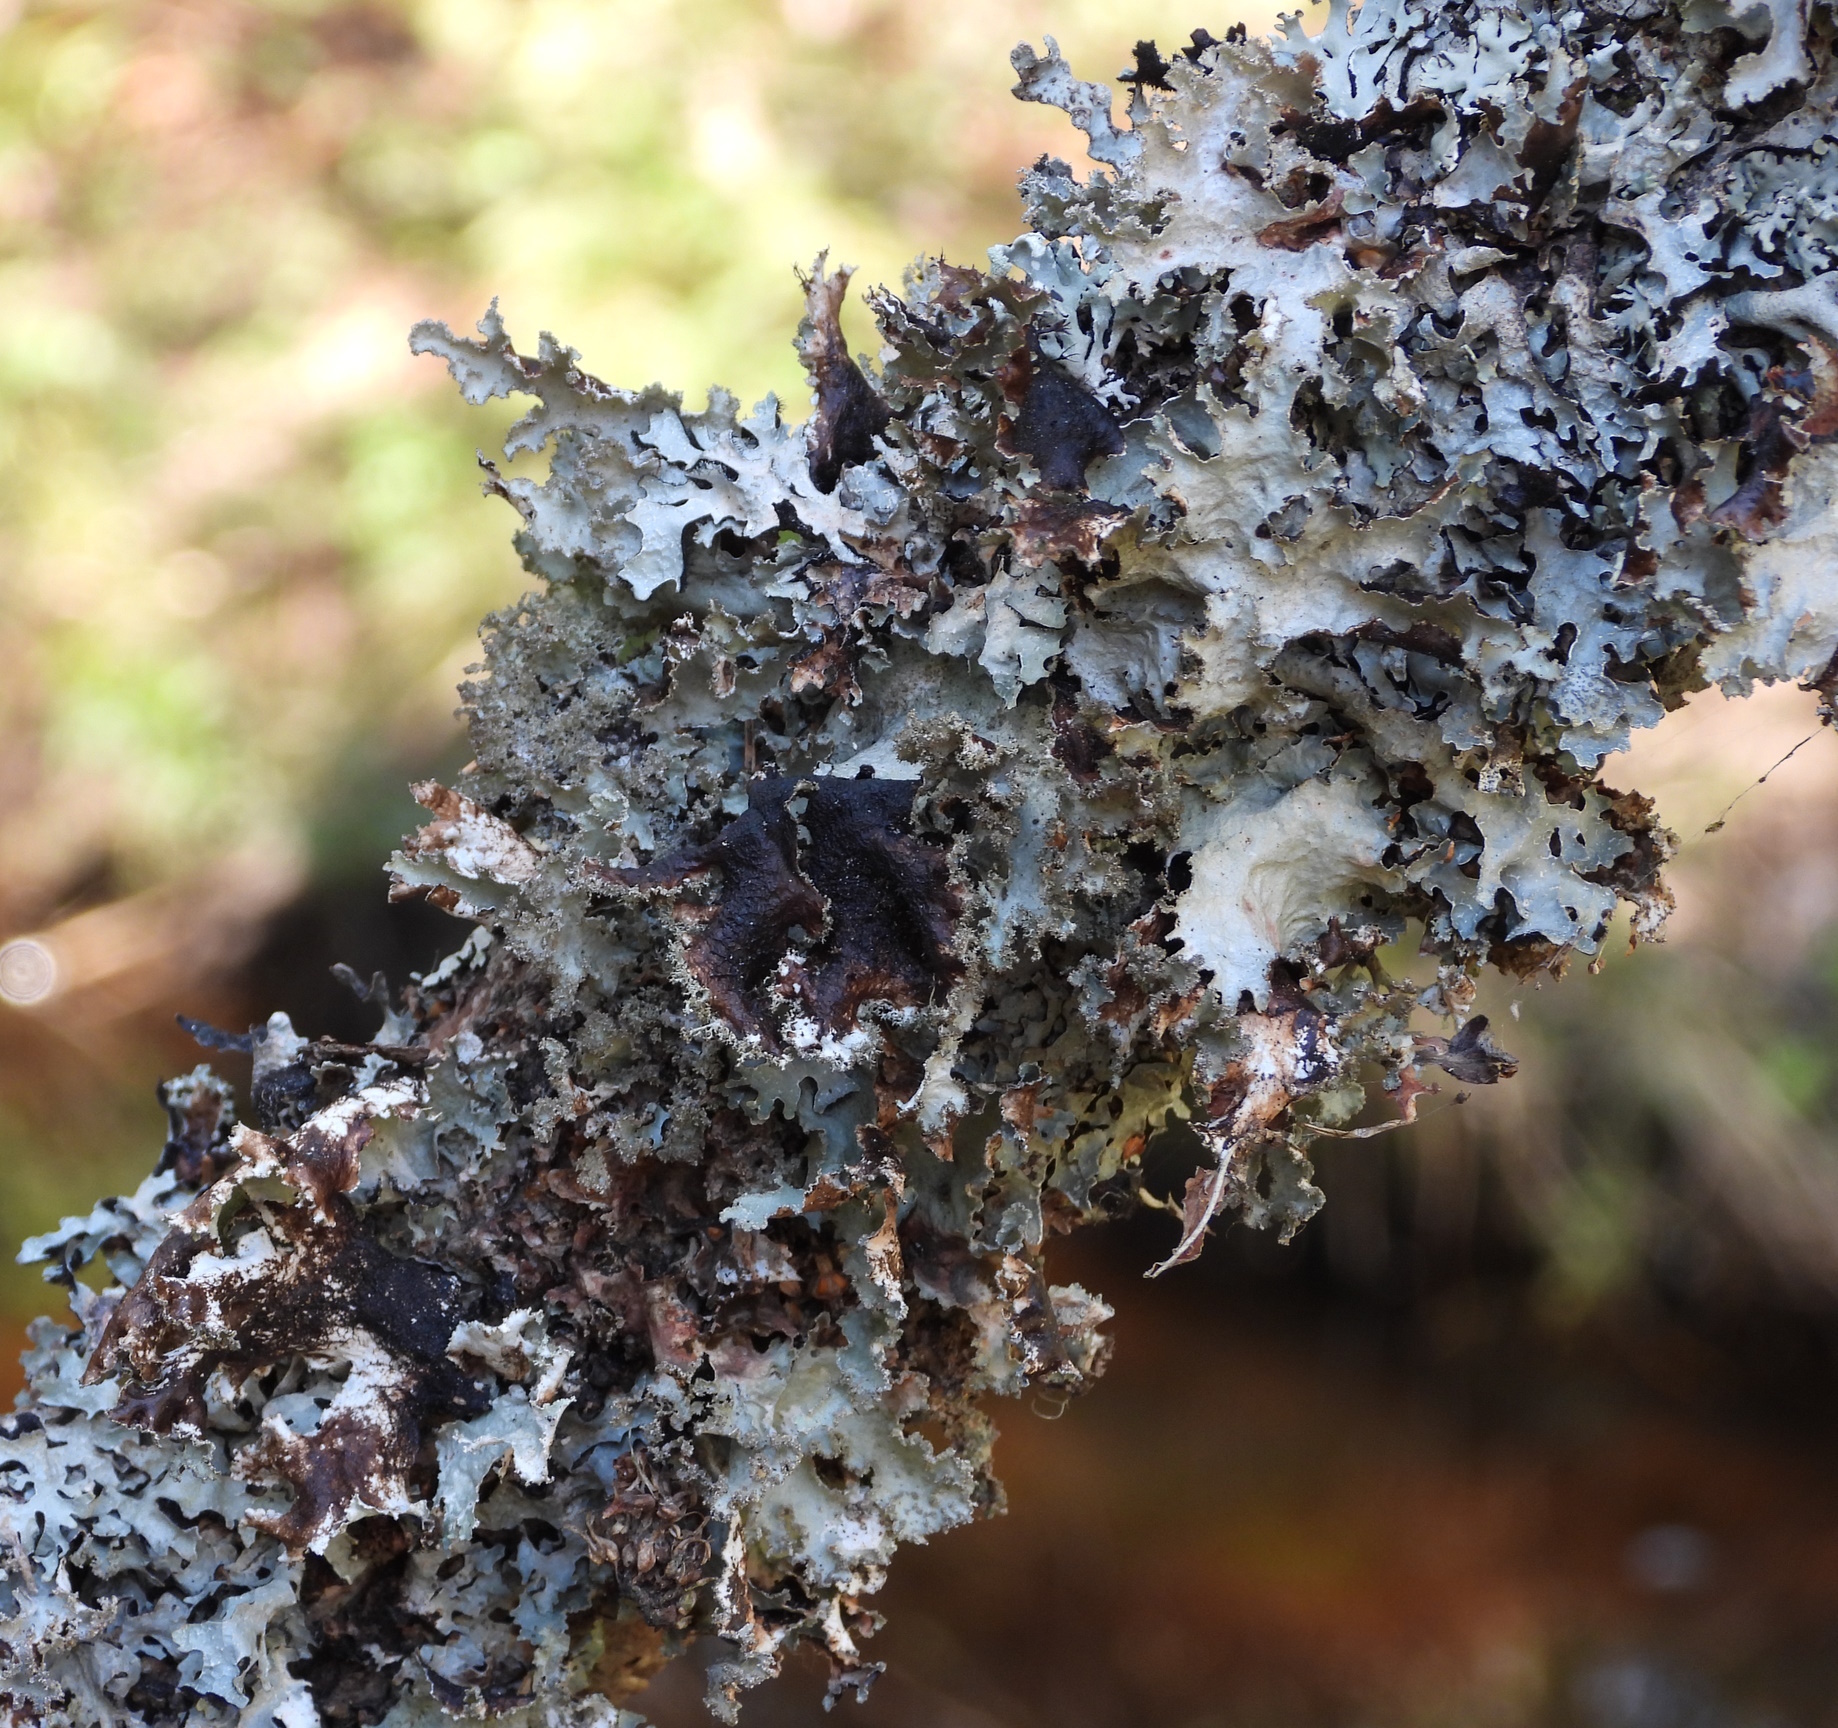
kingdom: Fungi
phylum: Ascomycota
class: Lecanoromycetes
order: Lecanorales
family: Parmeliaceae
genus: Platismatia
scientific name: Platismatia glauca
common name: Varied rag lichen
